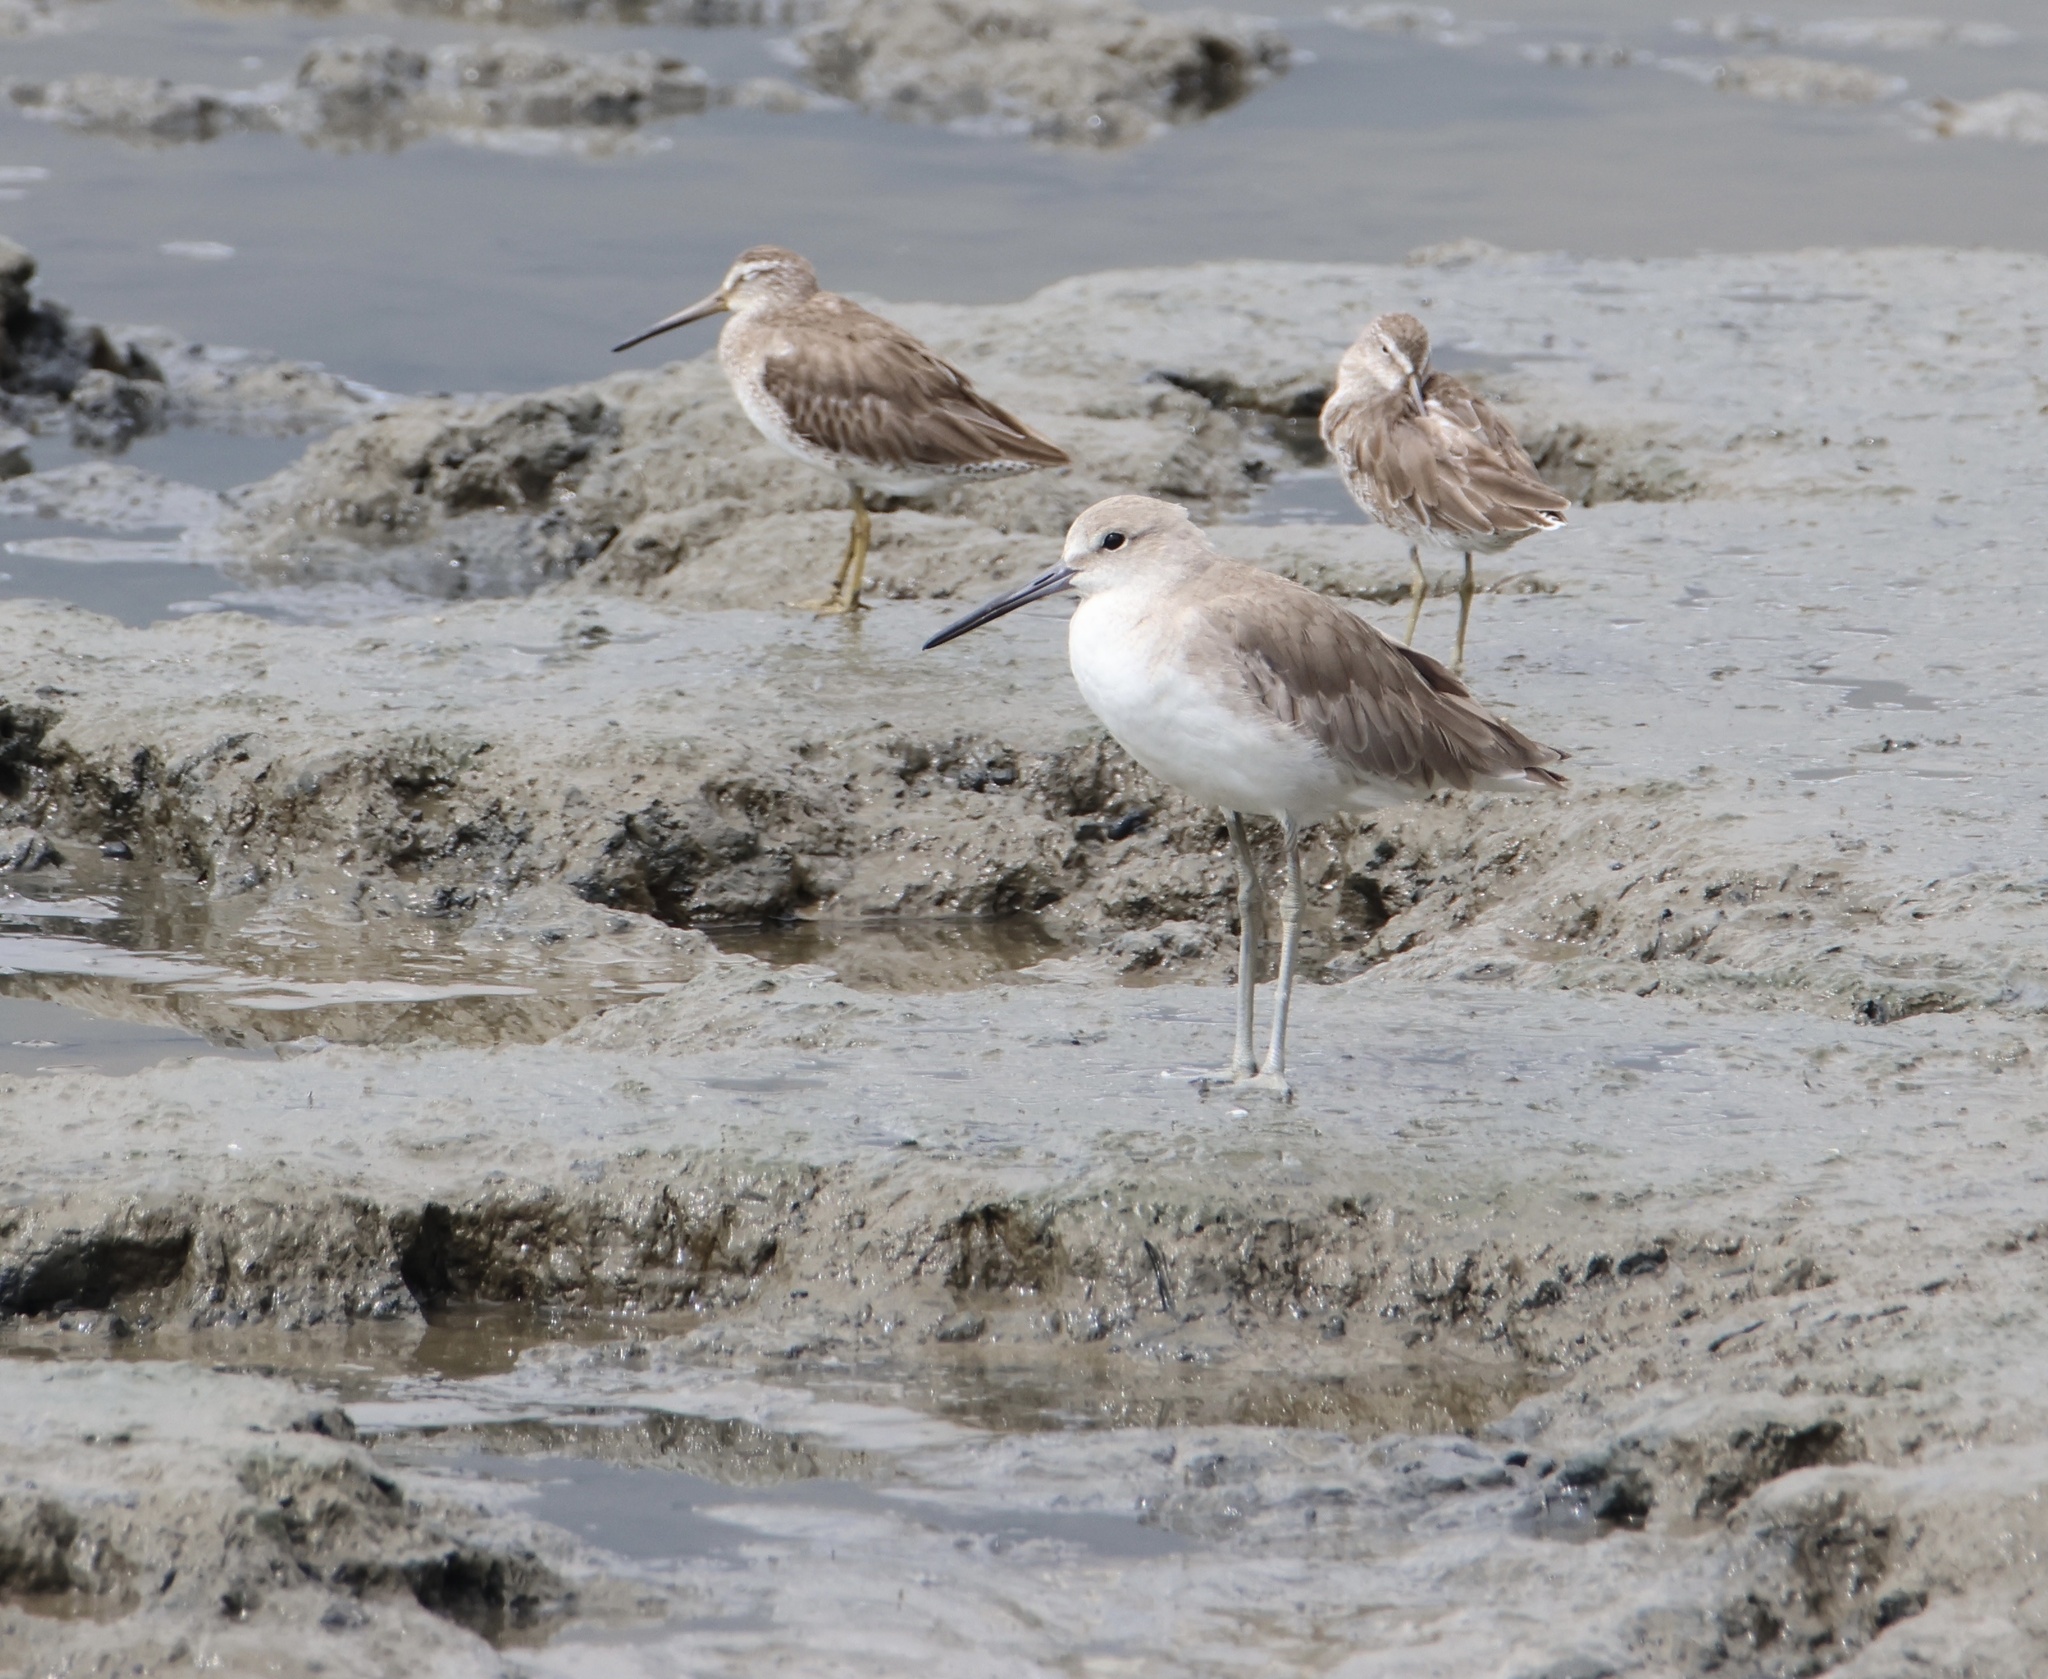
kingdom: Animalia
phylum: Chordata
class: Aves
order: Charadriiformes
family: Scolopacidae
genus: Tringa
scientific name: Tringa semipalmata
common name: Willet
